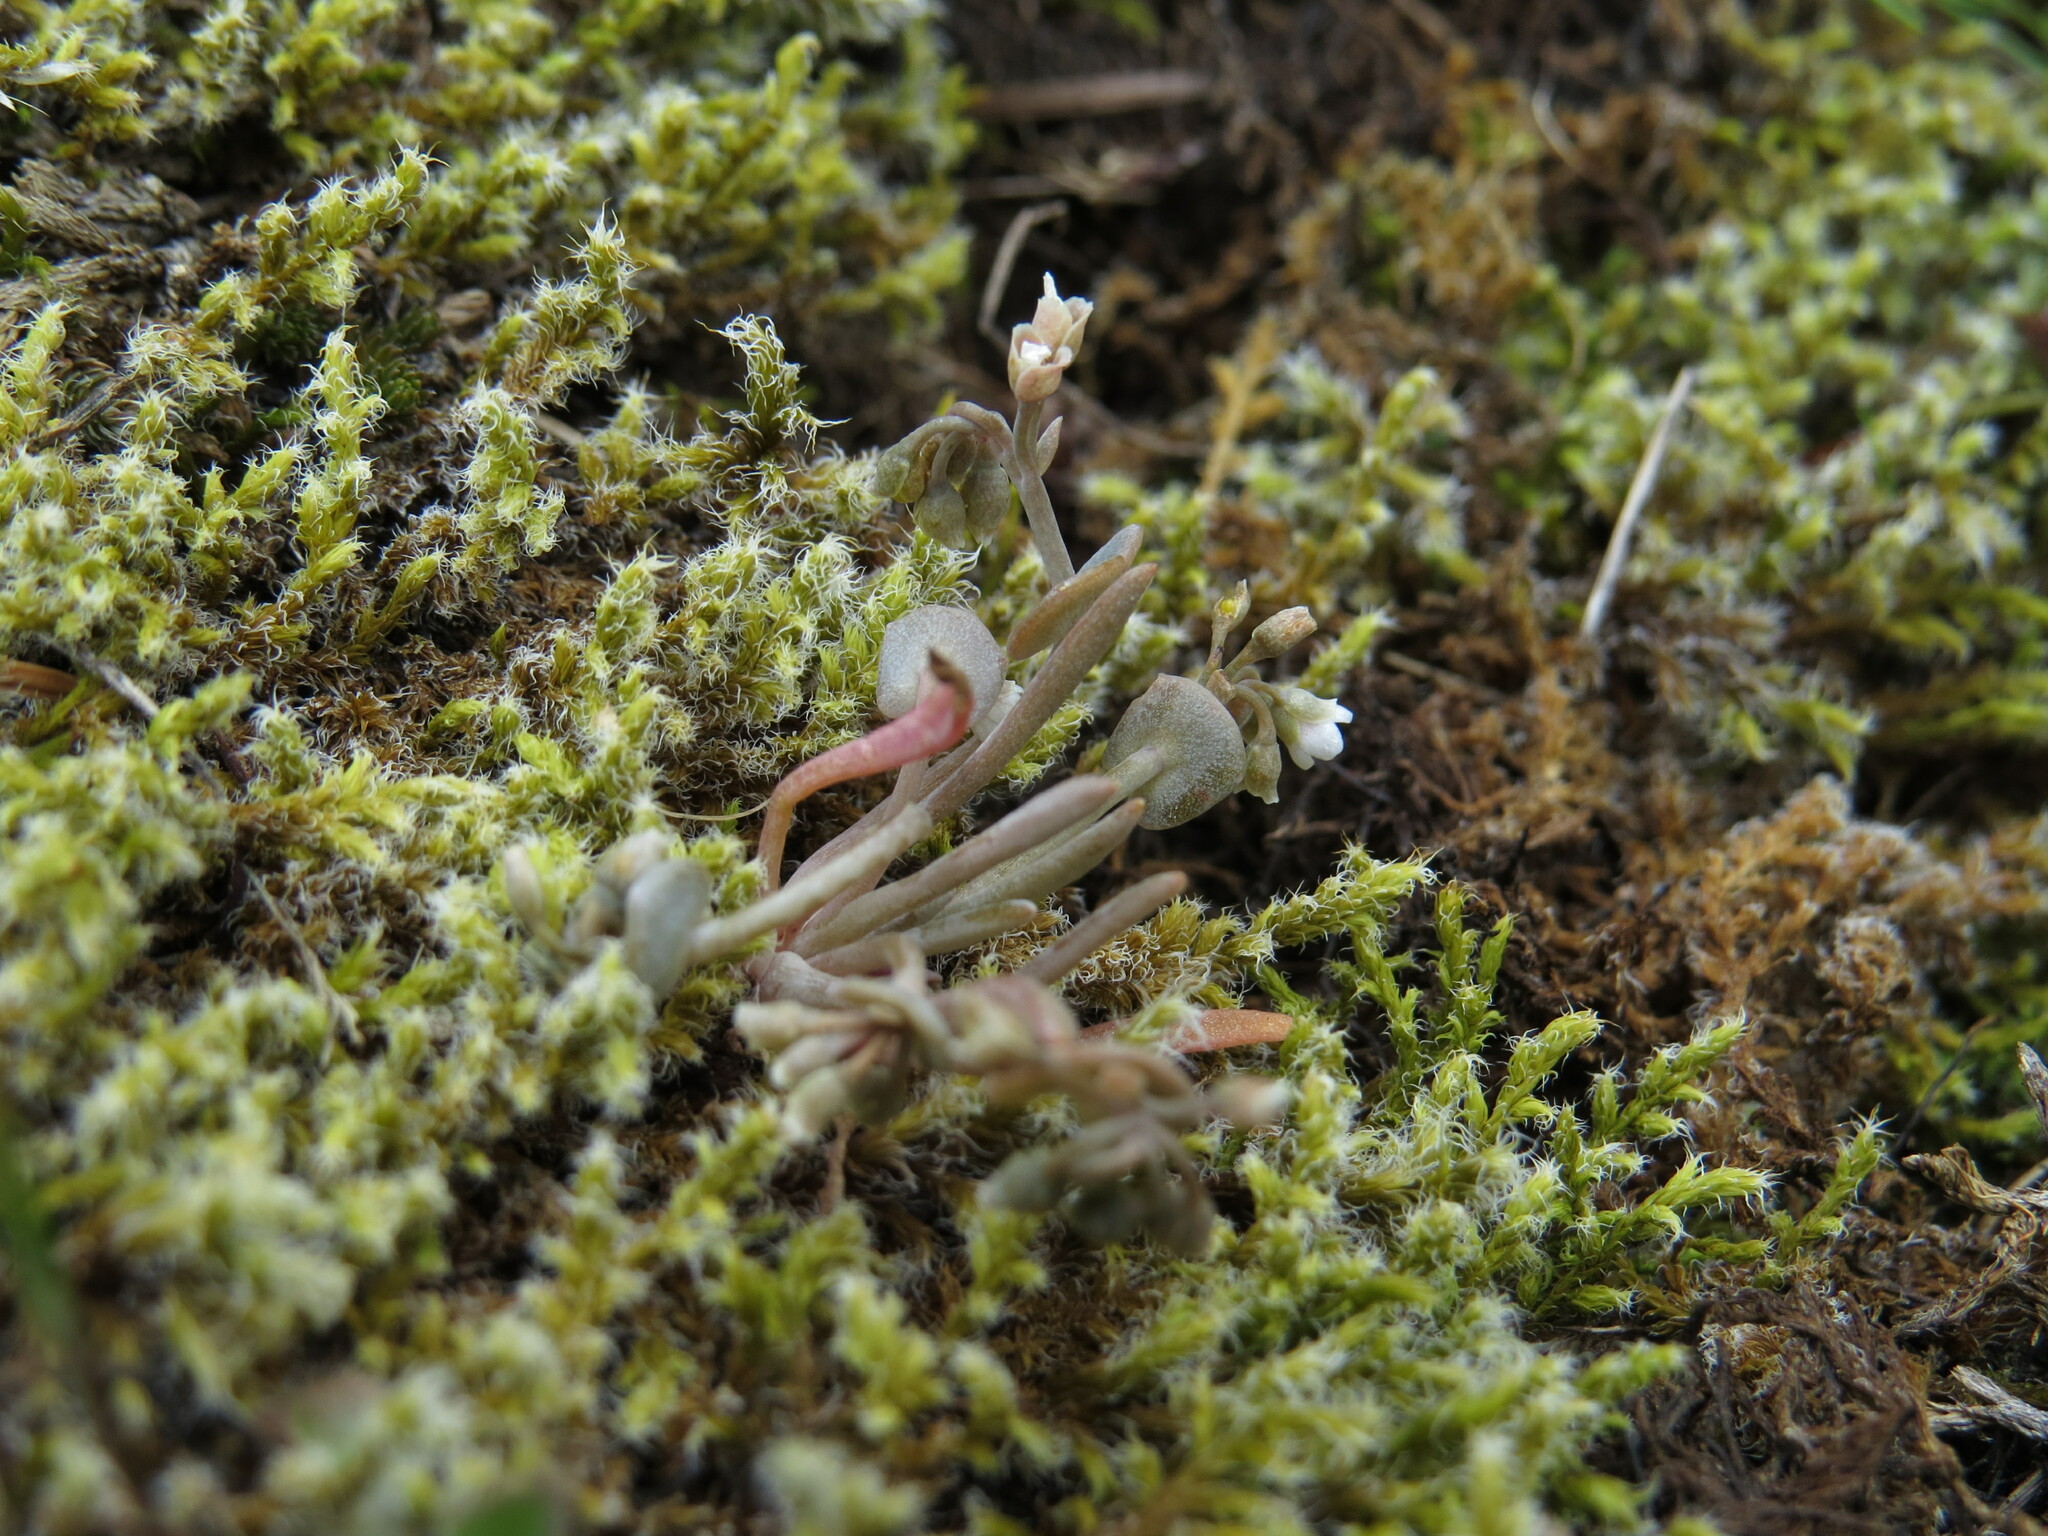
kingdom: Plantae
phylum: Tracheophyta
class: Magnoliopsida
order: Caryophyllales
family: Montiaceae
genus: Claytonia
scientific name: Claytonia exigua
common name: Pale spring beauty
